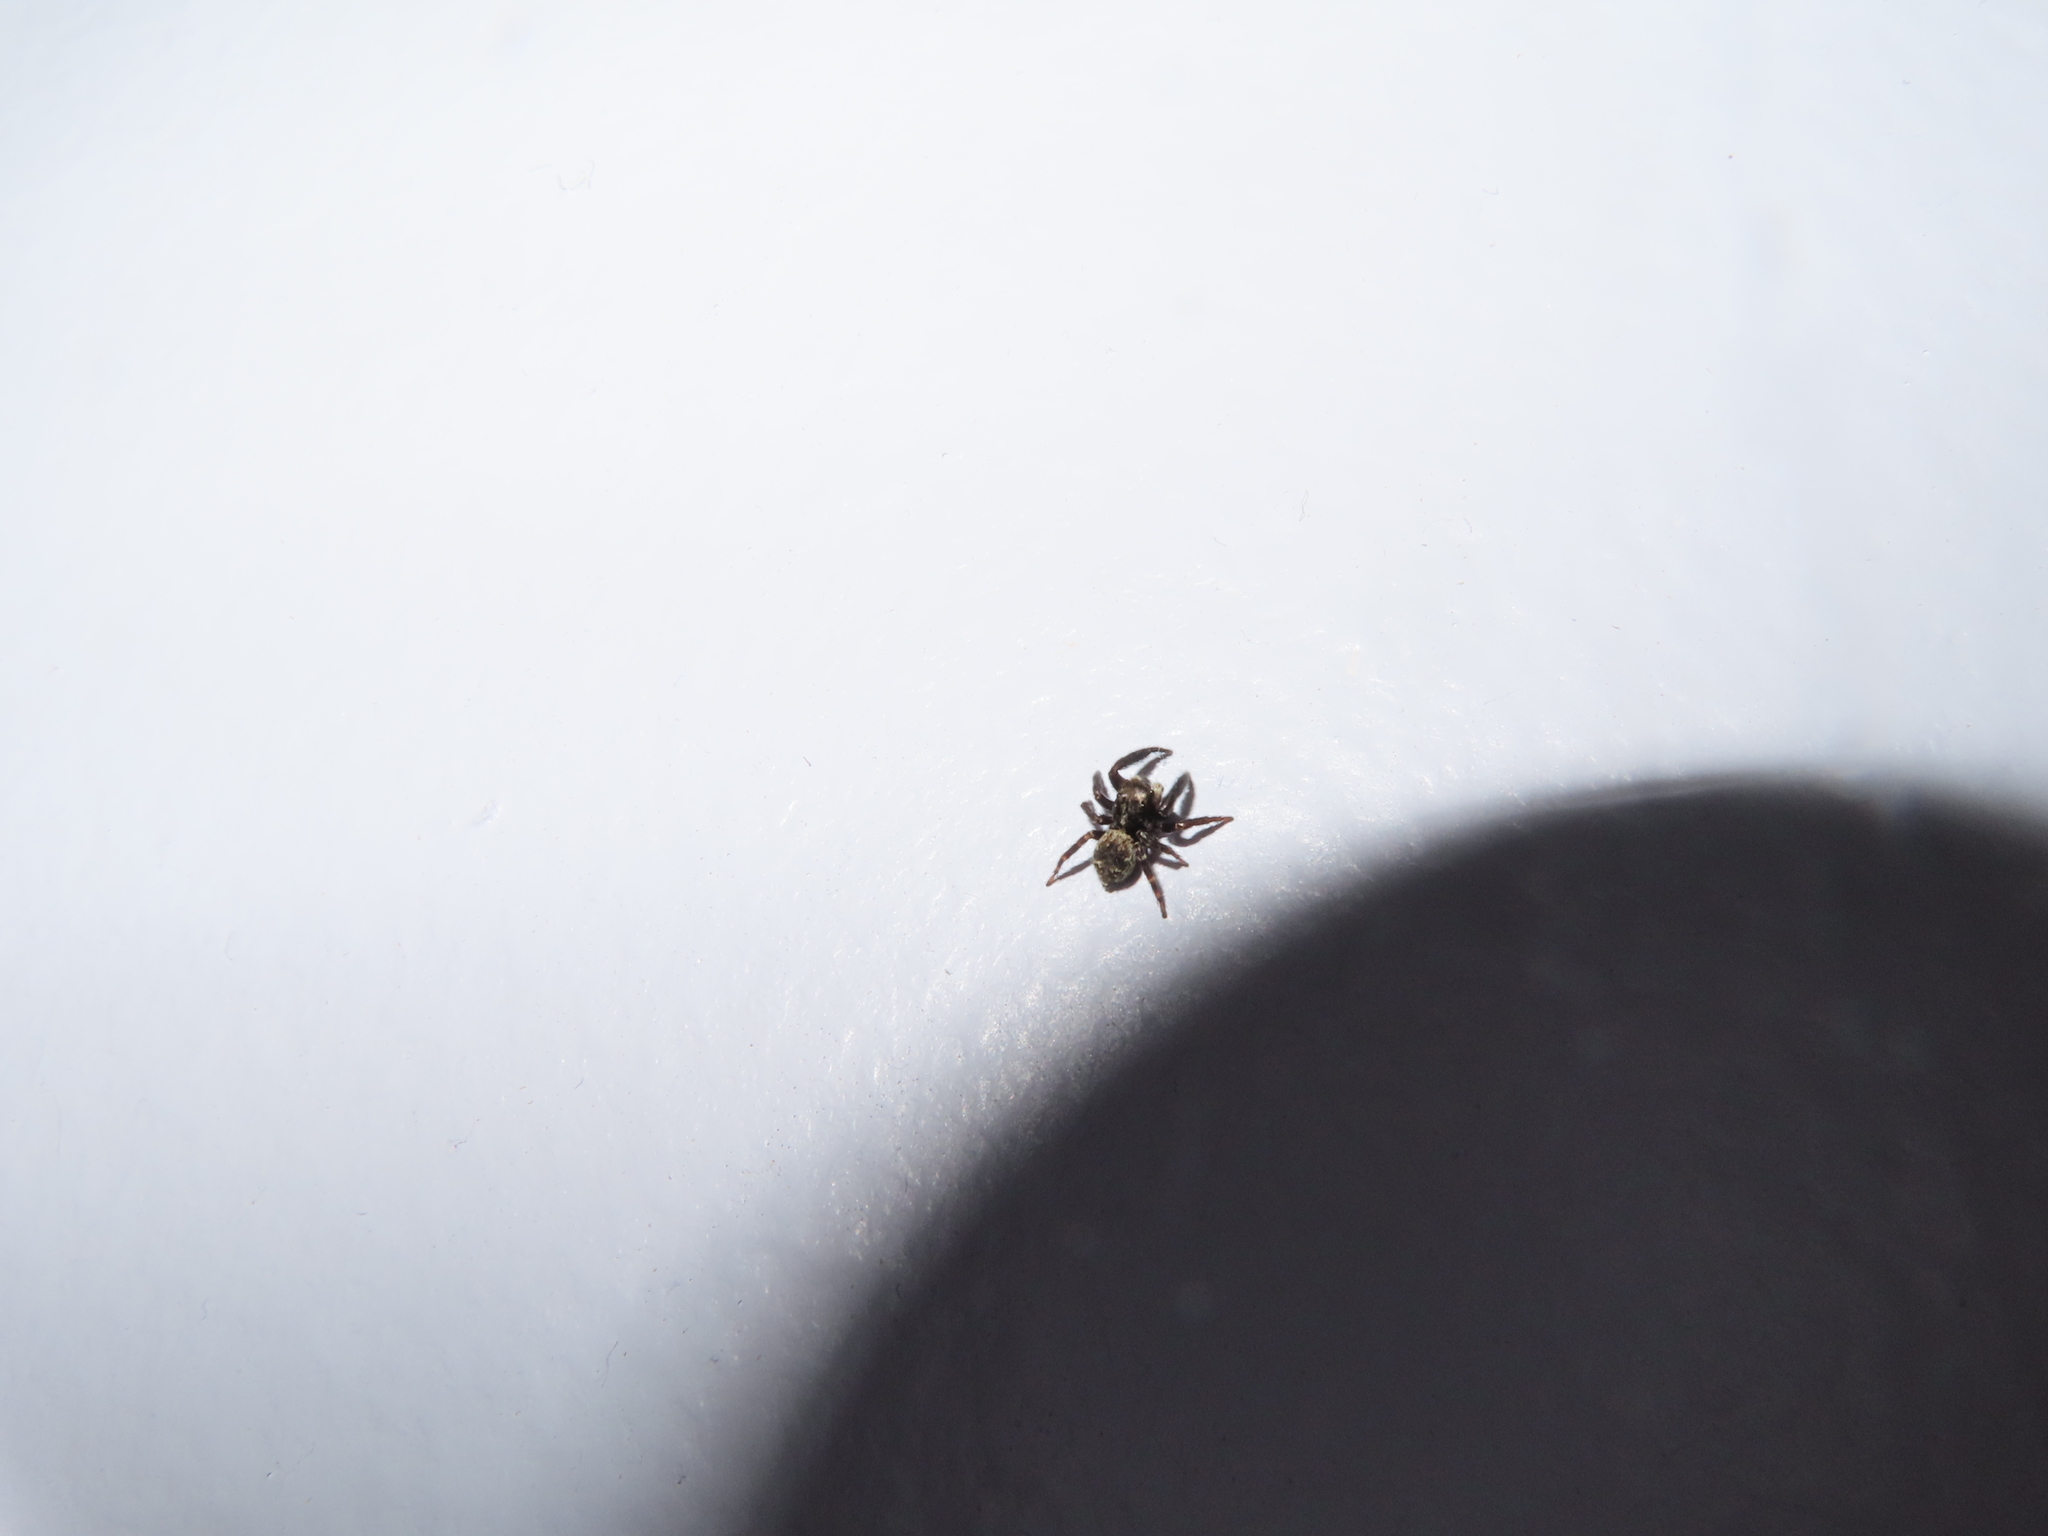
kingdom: Animalia
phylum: Arthropoda
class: Arachnida
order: Araneae
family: Salticidae
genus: Pseudeuophrys
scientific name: Pseudeuophrys erratica
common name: Jumping spider
